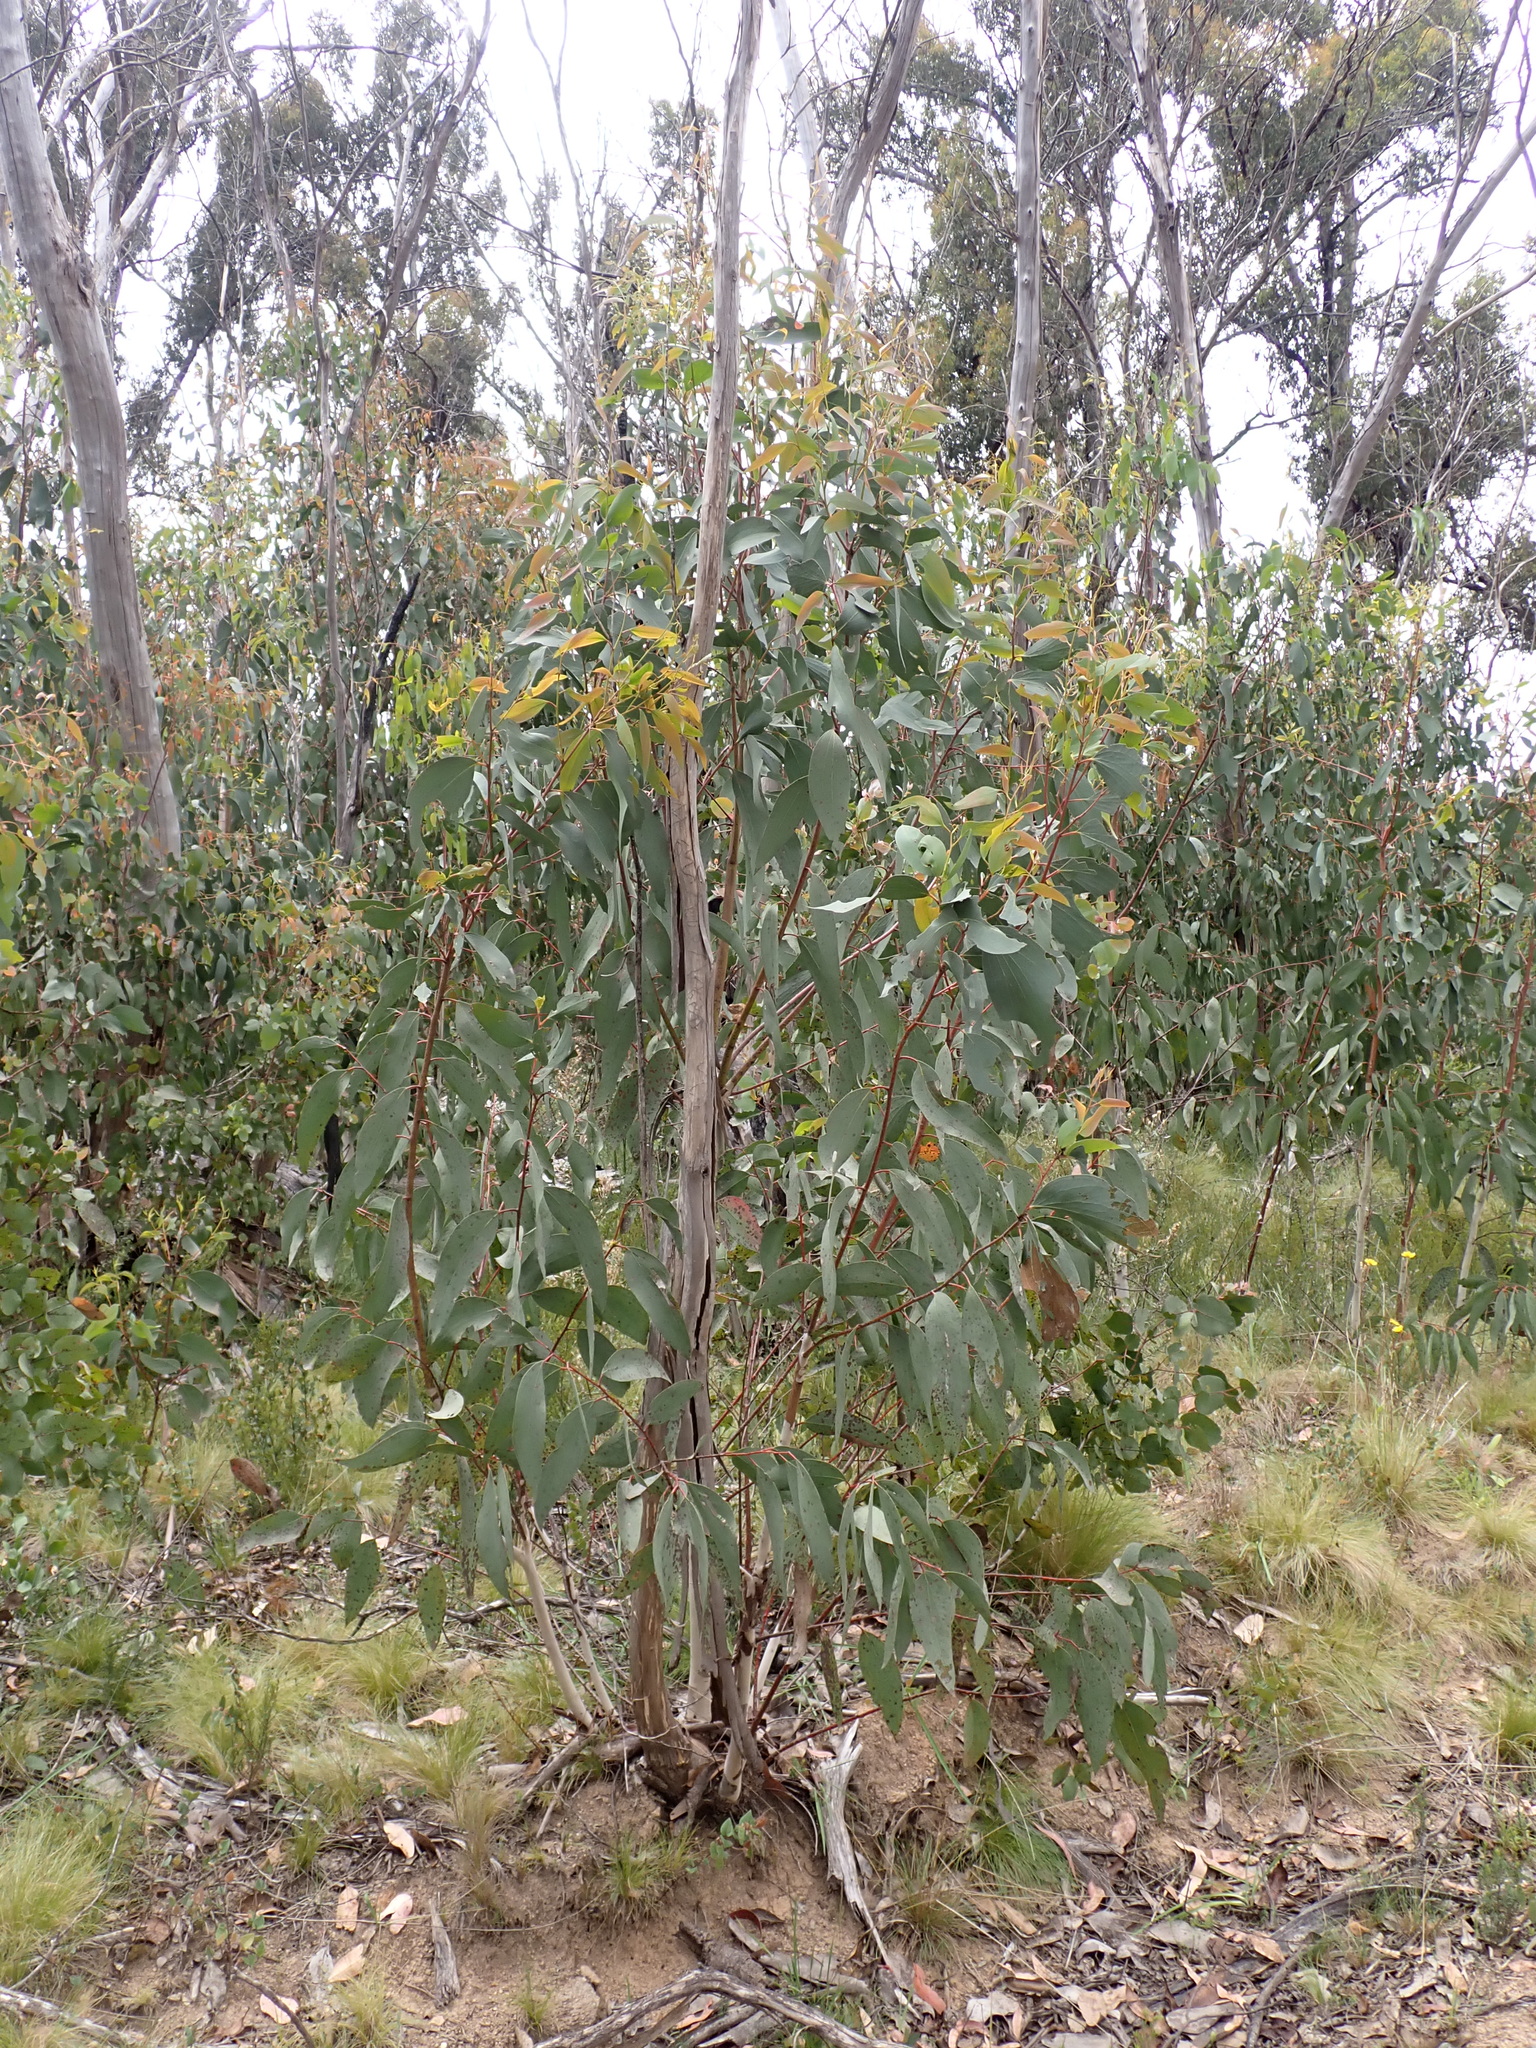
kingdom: Plantae
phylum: Tracheophyta
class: Magnoliopsida
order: Myrtales
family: Myrtaceae
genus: Eucalyptus
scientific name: Eucalyptus pauciflora
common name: Snow gum
